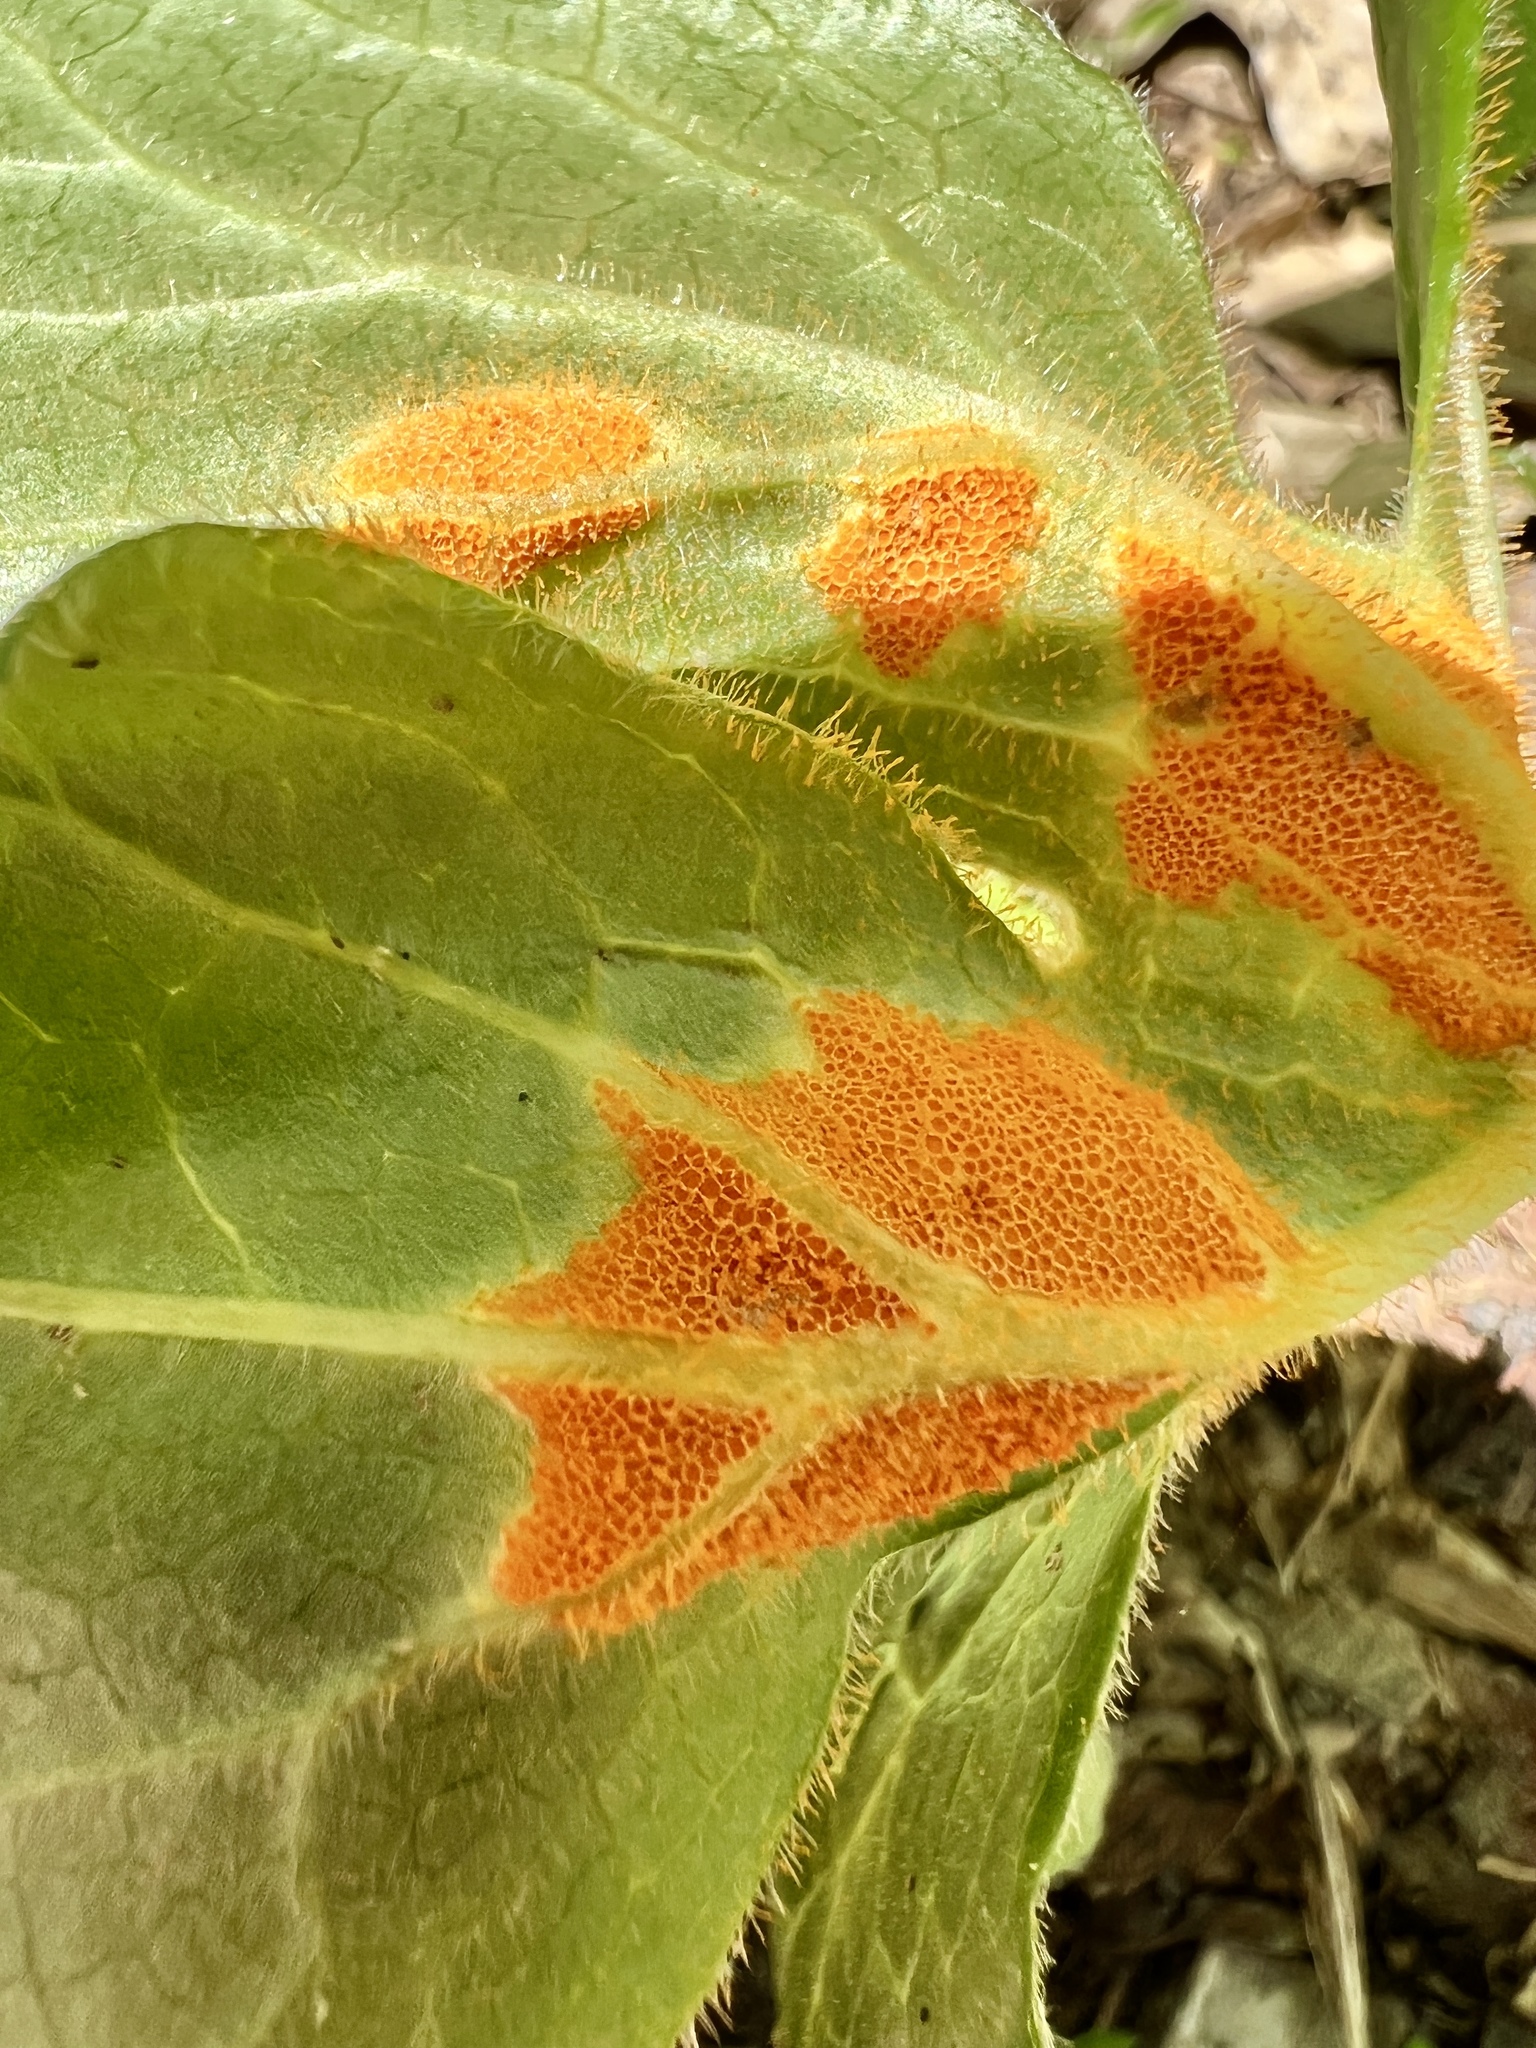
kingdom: Fungi
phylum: Basidiomycota
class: Pucciniomycetes
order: Pucciniales
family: Pucciniaceae
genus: Puccinia
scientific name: Puccinia podophylli
